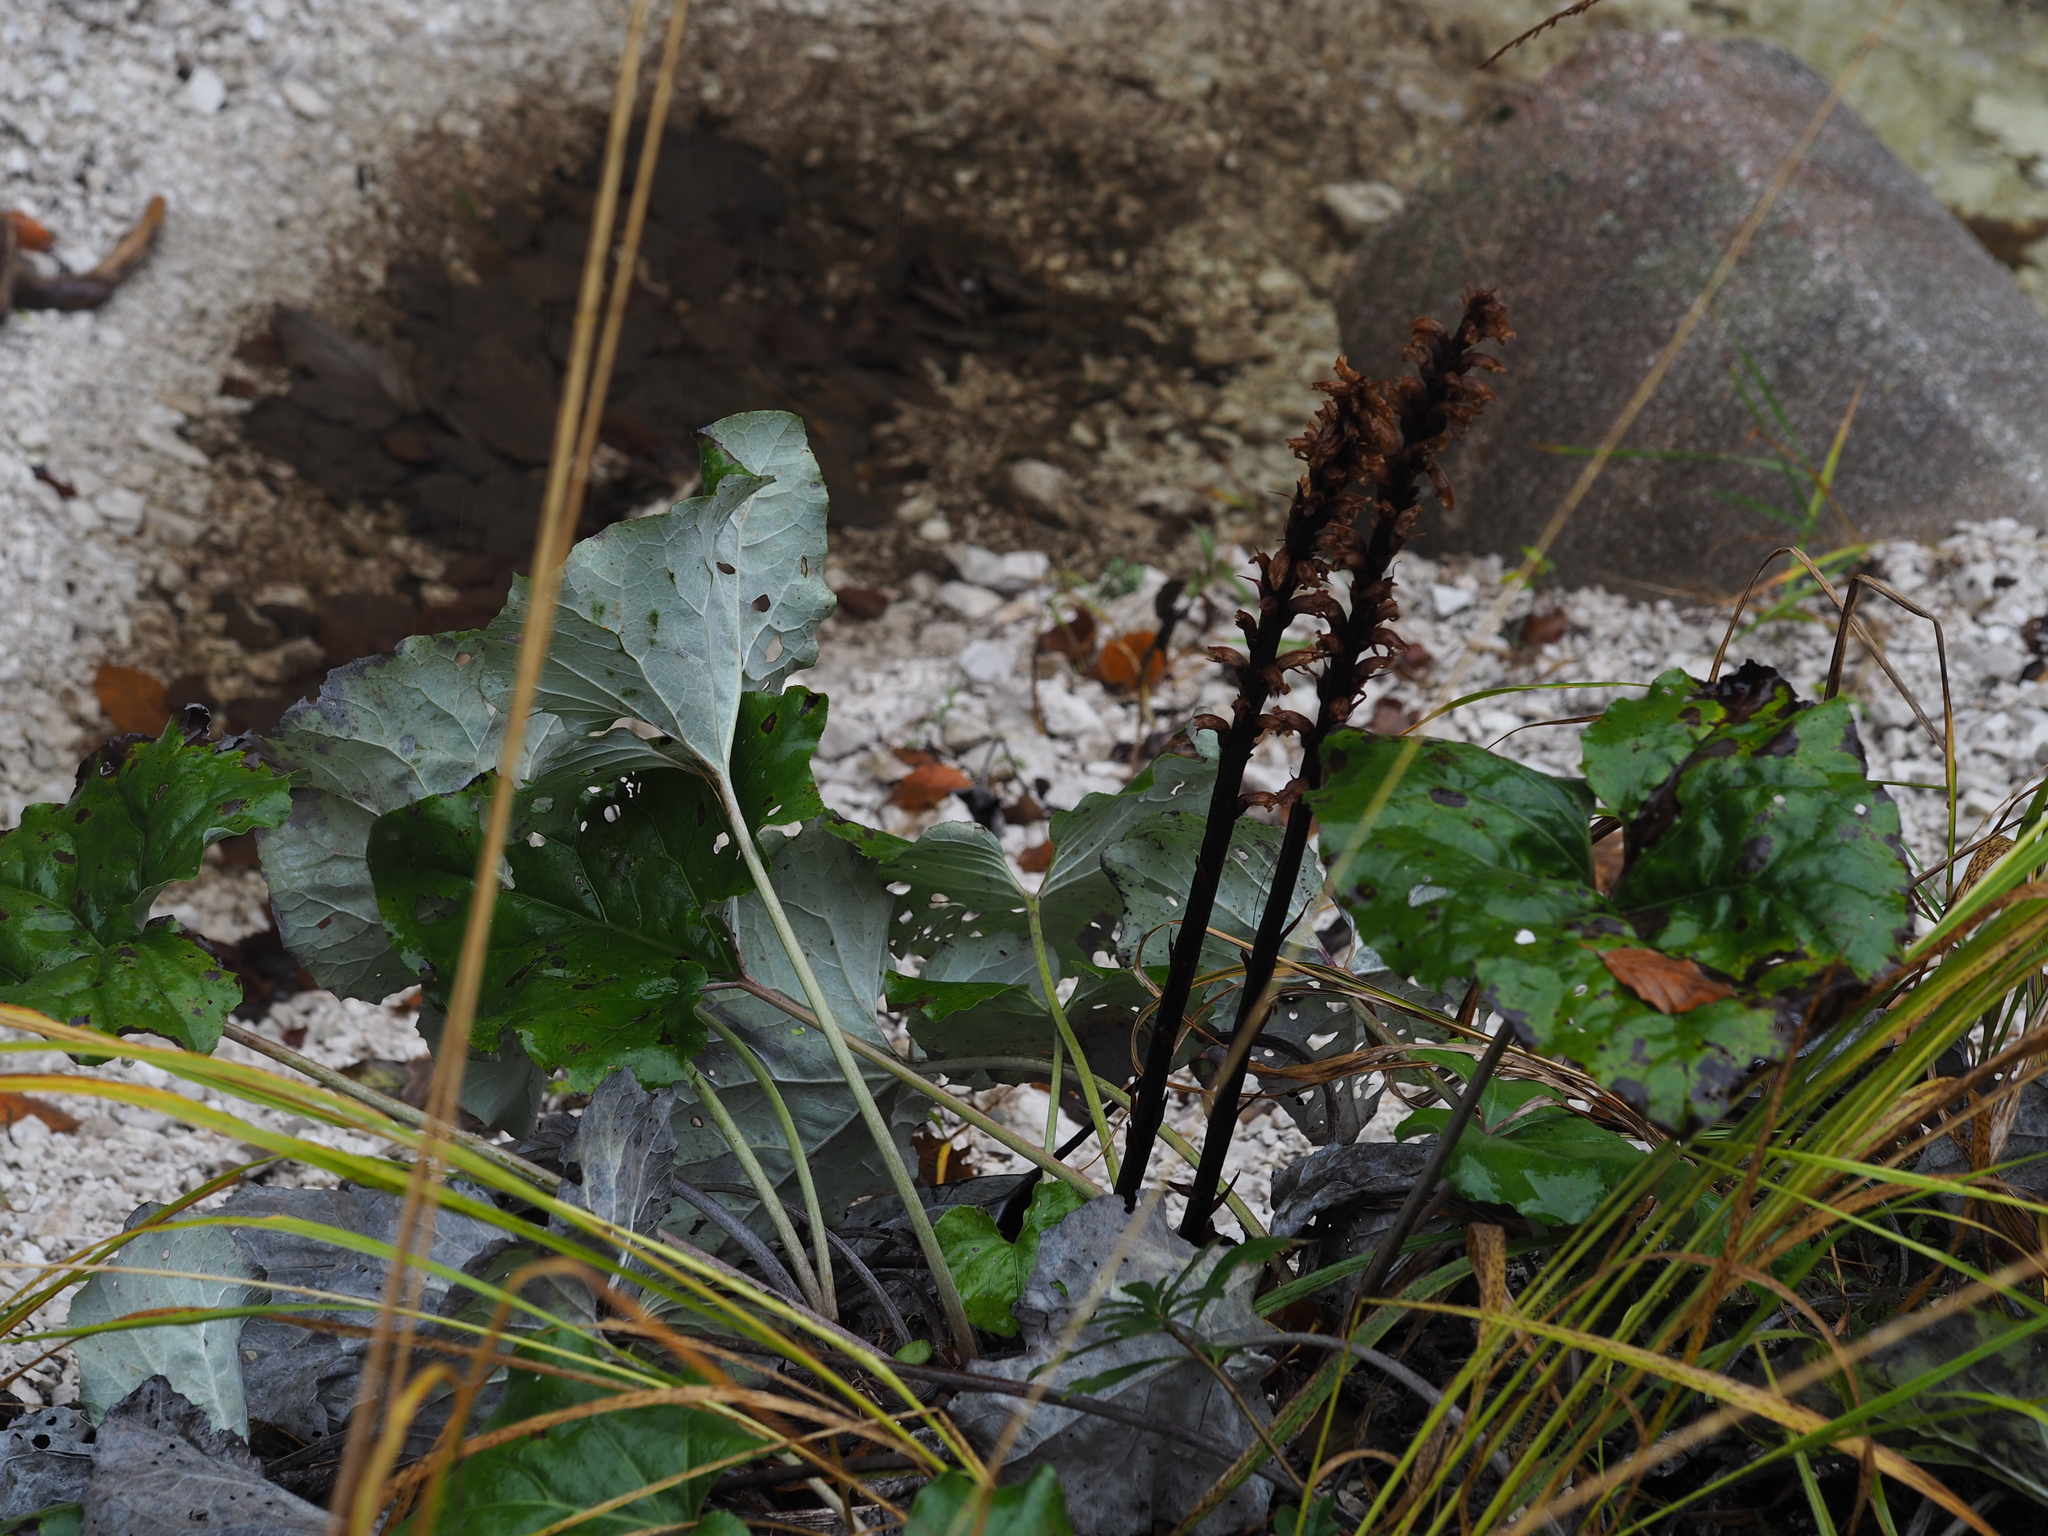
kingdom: Plantae
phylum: Tracheophyta
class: Magnoliopsida
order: Lamiales
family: Orobanchaceae
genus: Orobanche
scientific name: Orobanche flava
